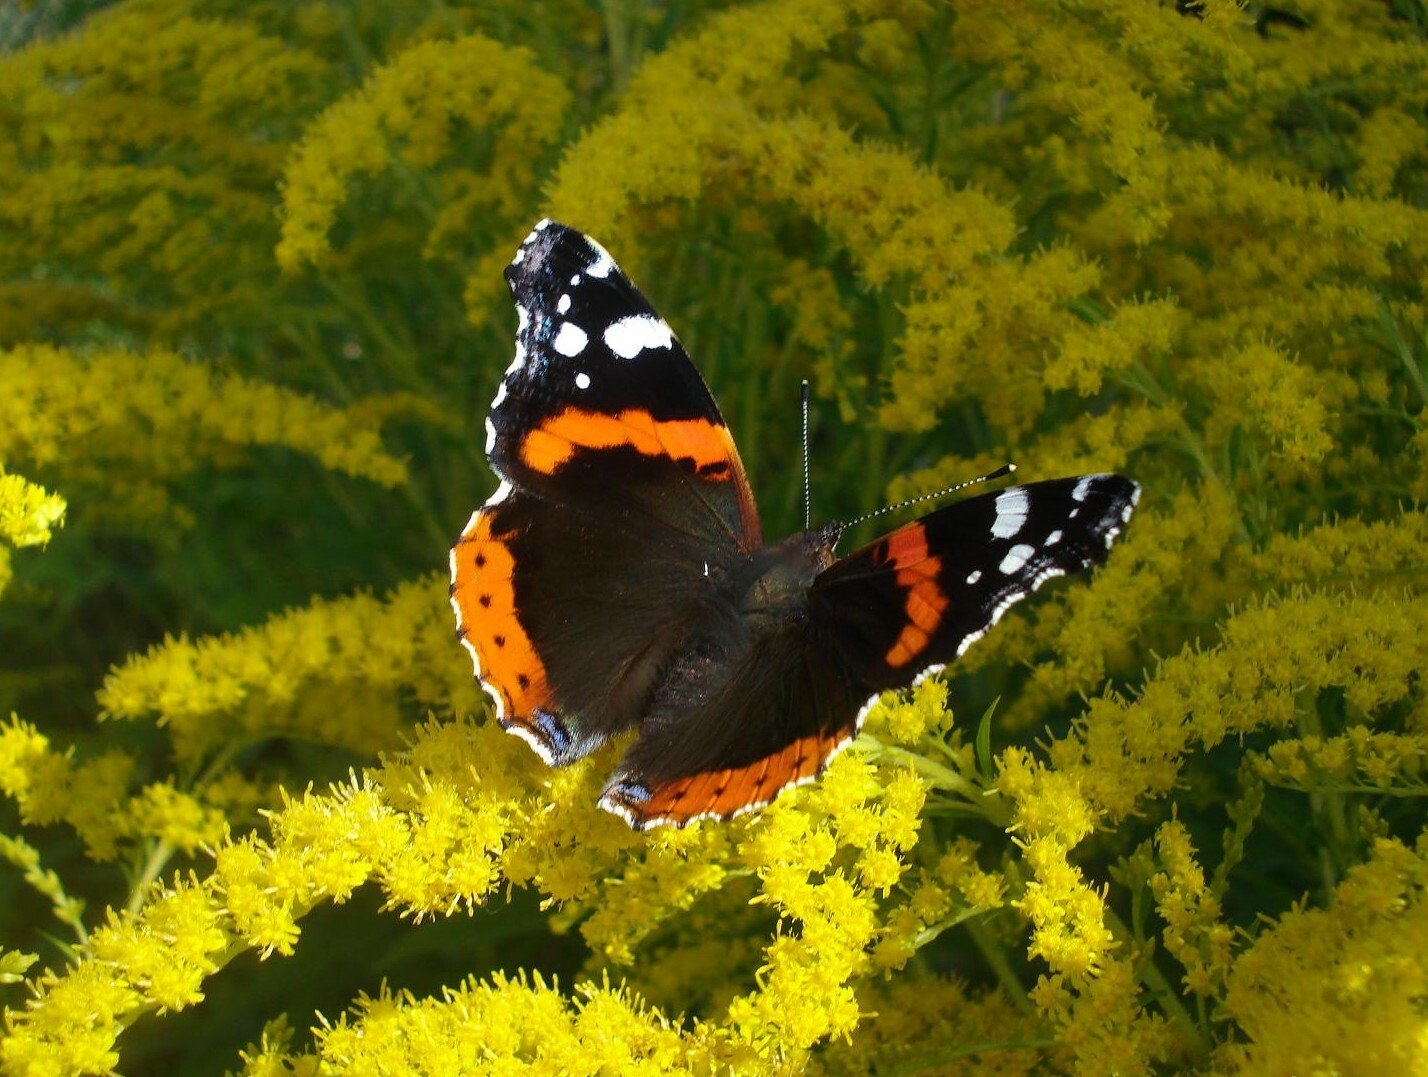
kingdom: Animalia
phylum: Arthropoda
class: Insecta
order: Lepidoptera
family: Nymphalidae
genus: Vanessa
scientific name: Vanessa atalanta
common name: Red admiral
